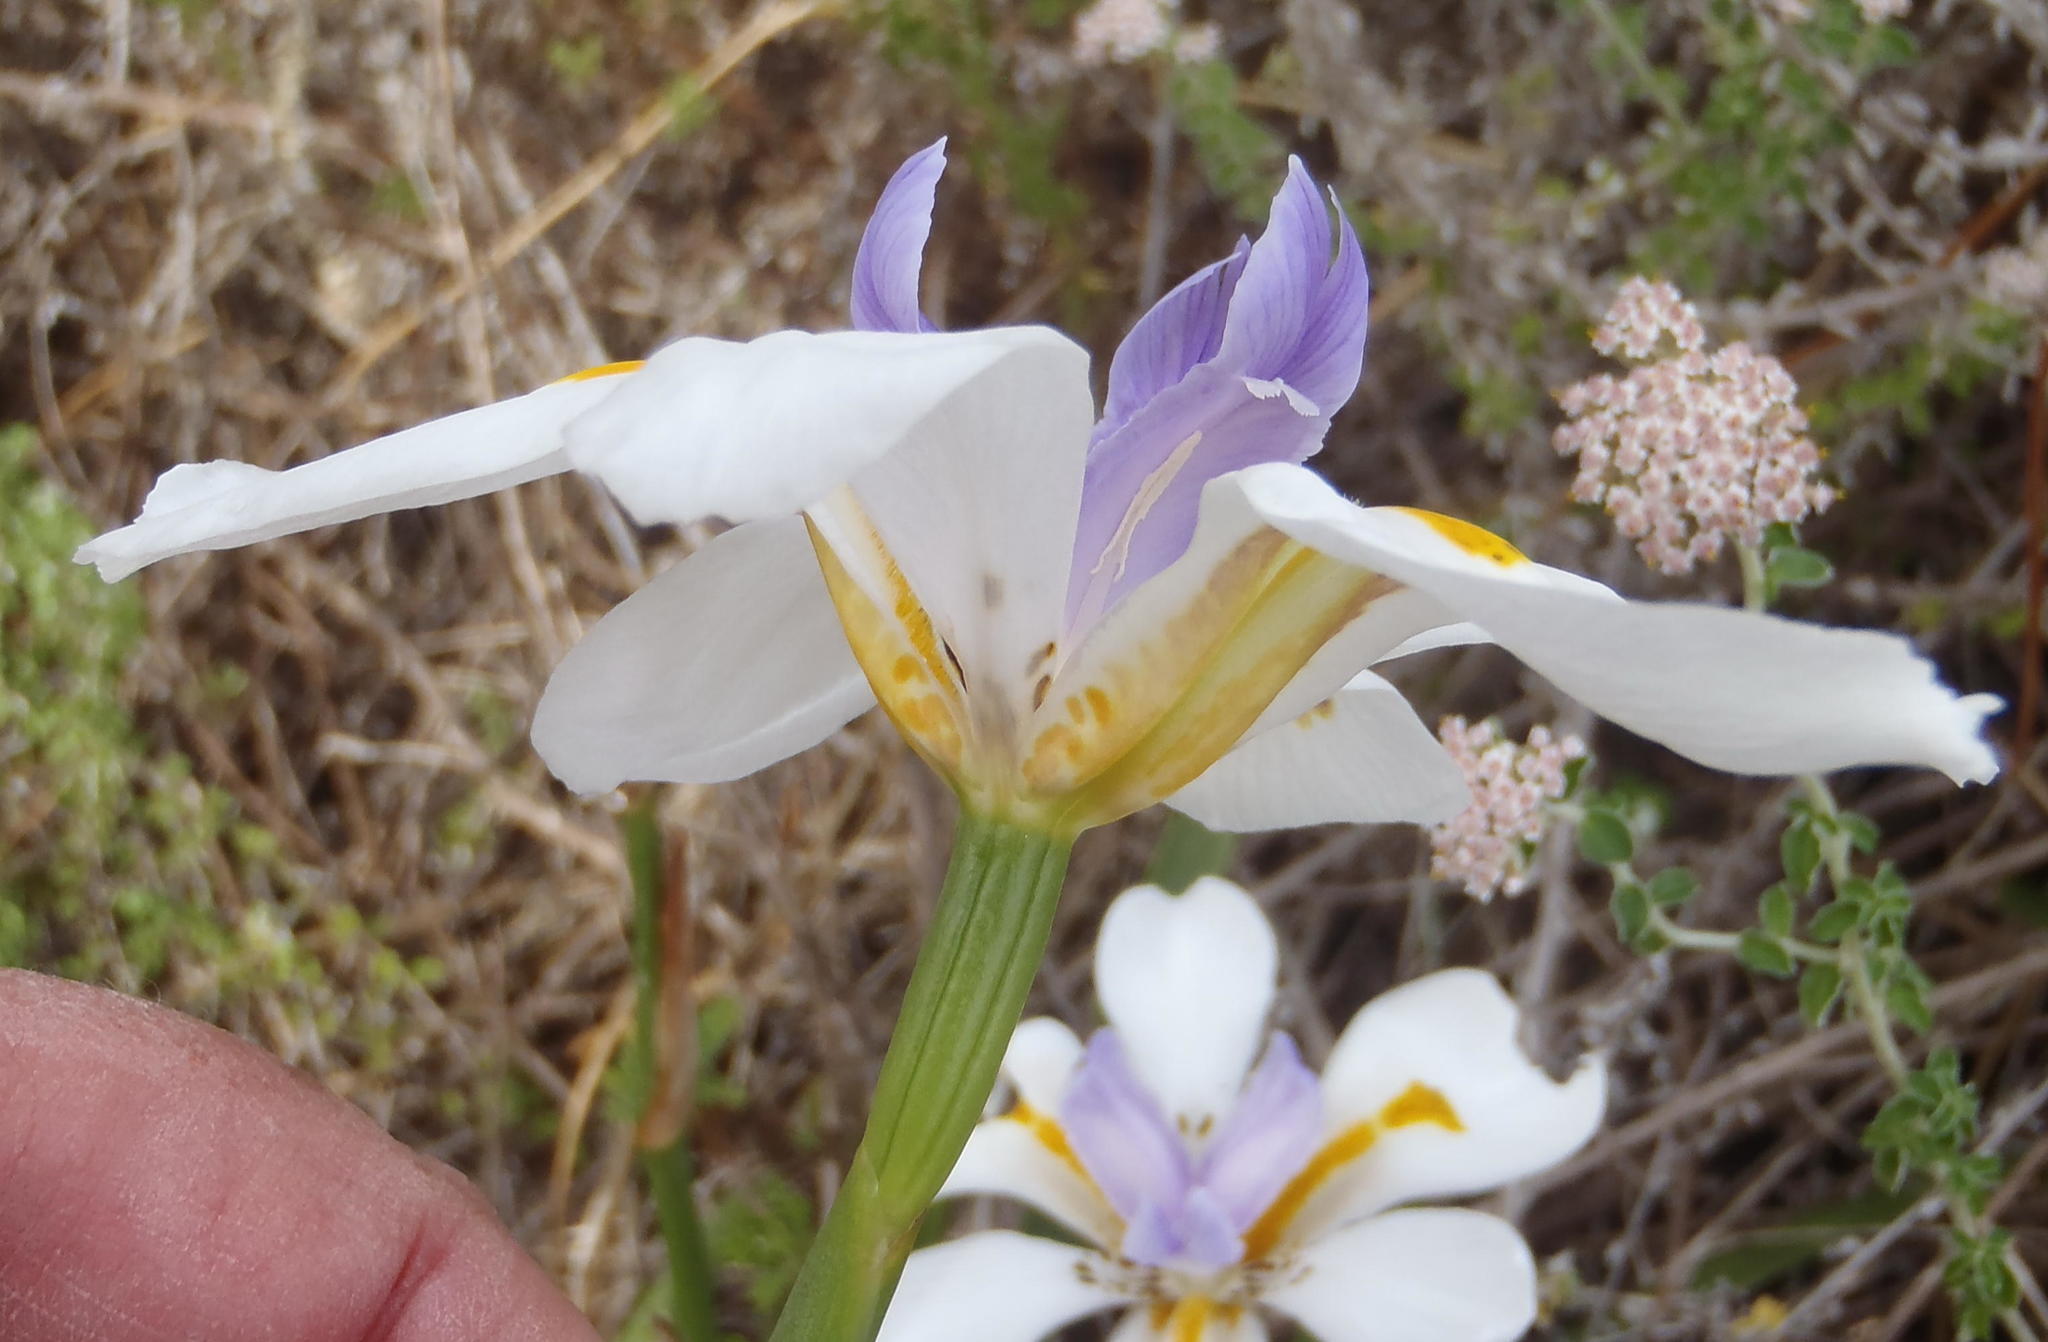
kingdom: Plantae
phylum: Tracheophyta
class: Liliopsida
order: Asparagales
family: Iridaceae
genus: Dietes
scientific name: Dietes grandiflora
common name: Wild iris
